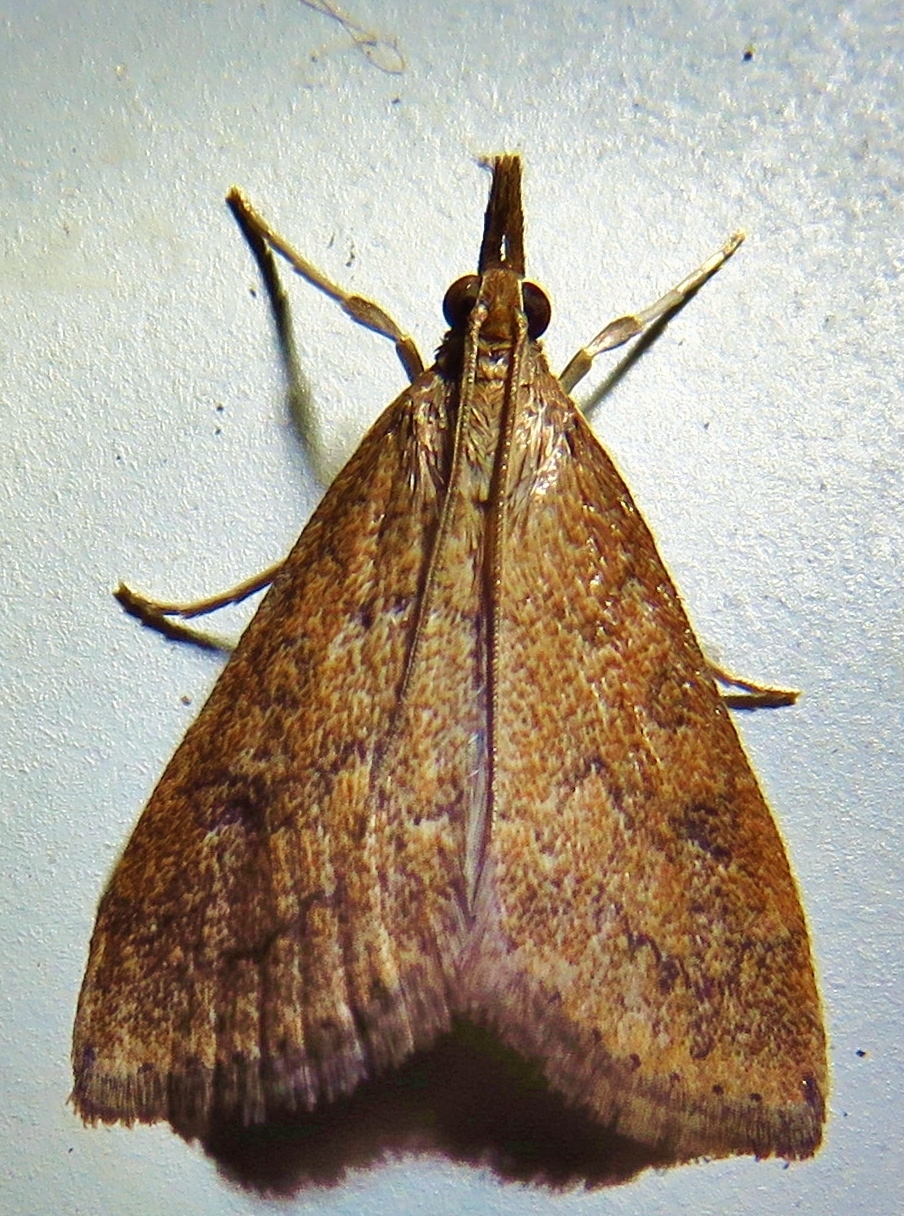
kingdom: Animalia
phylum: Arthropoda
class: Insecta
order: Lepidoptera
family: Crambidae
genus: Udea
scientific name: Udea rubigalis
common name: Celery leaftier moth
